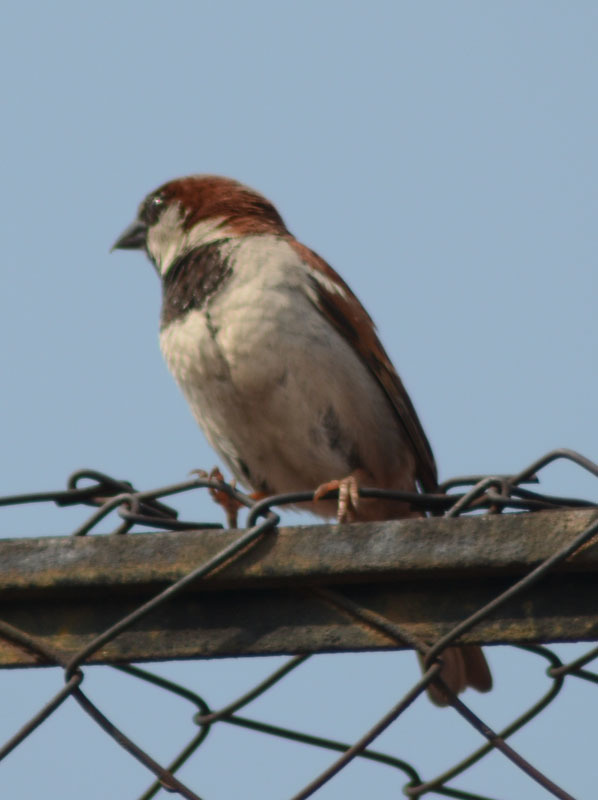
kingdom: Animalia
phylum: Chordata
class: Aves
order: Passeriformes
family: Passeridae
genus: Passer
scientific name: Passer domesticus
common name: House sparrow
